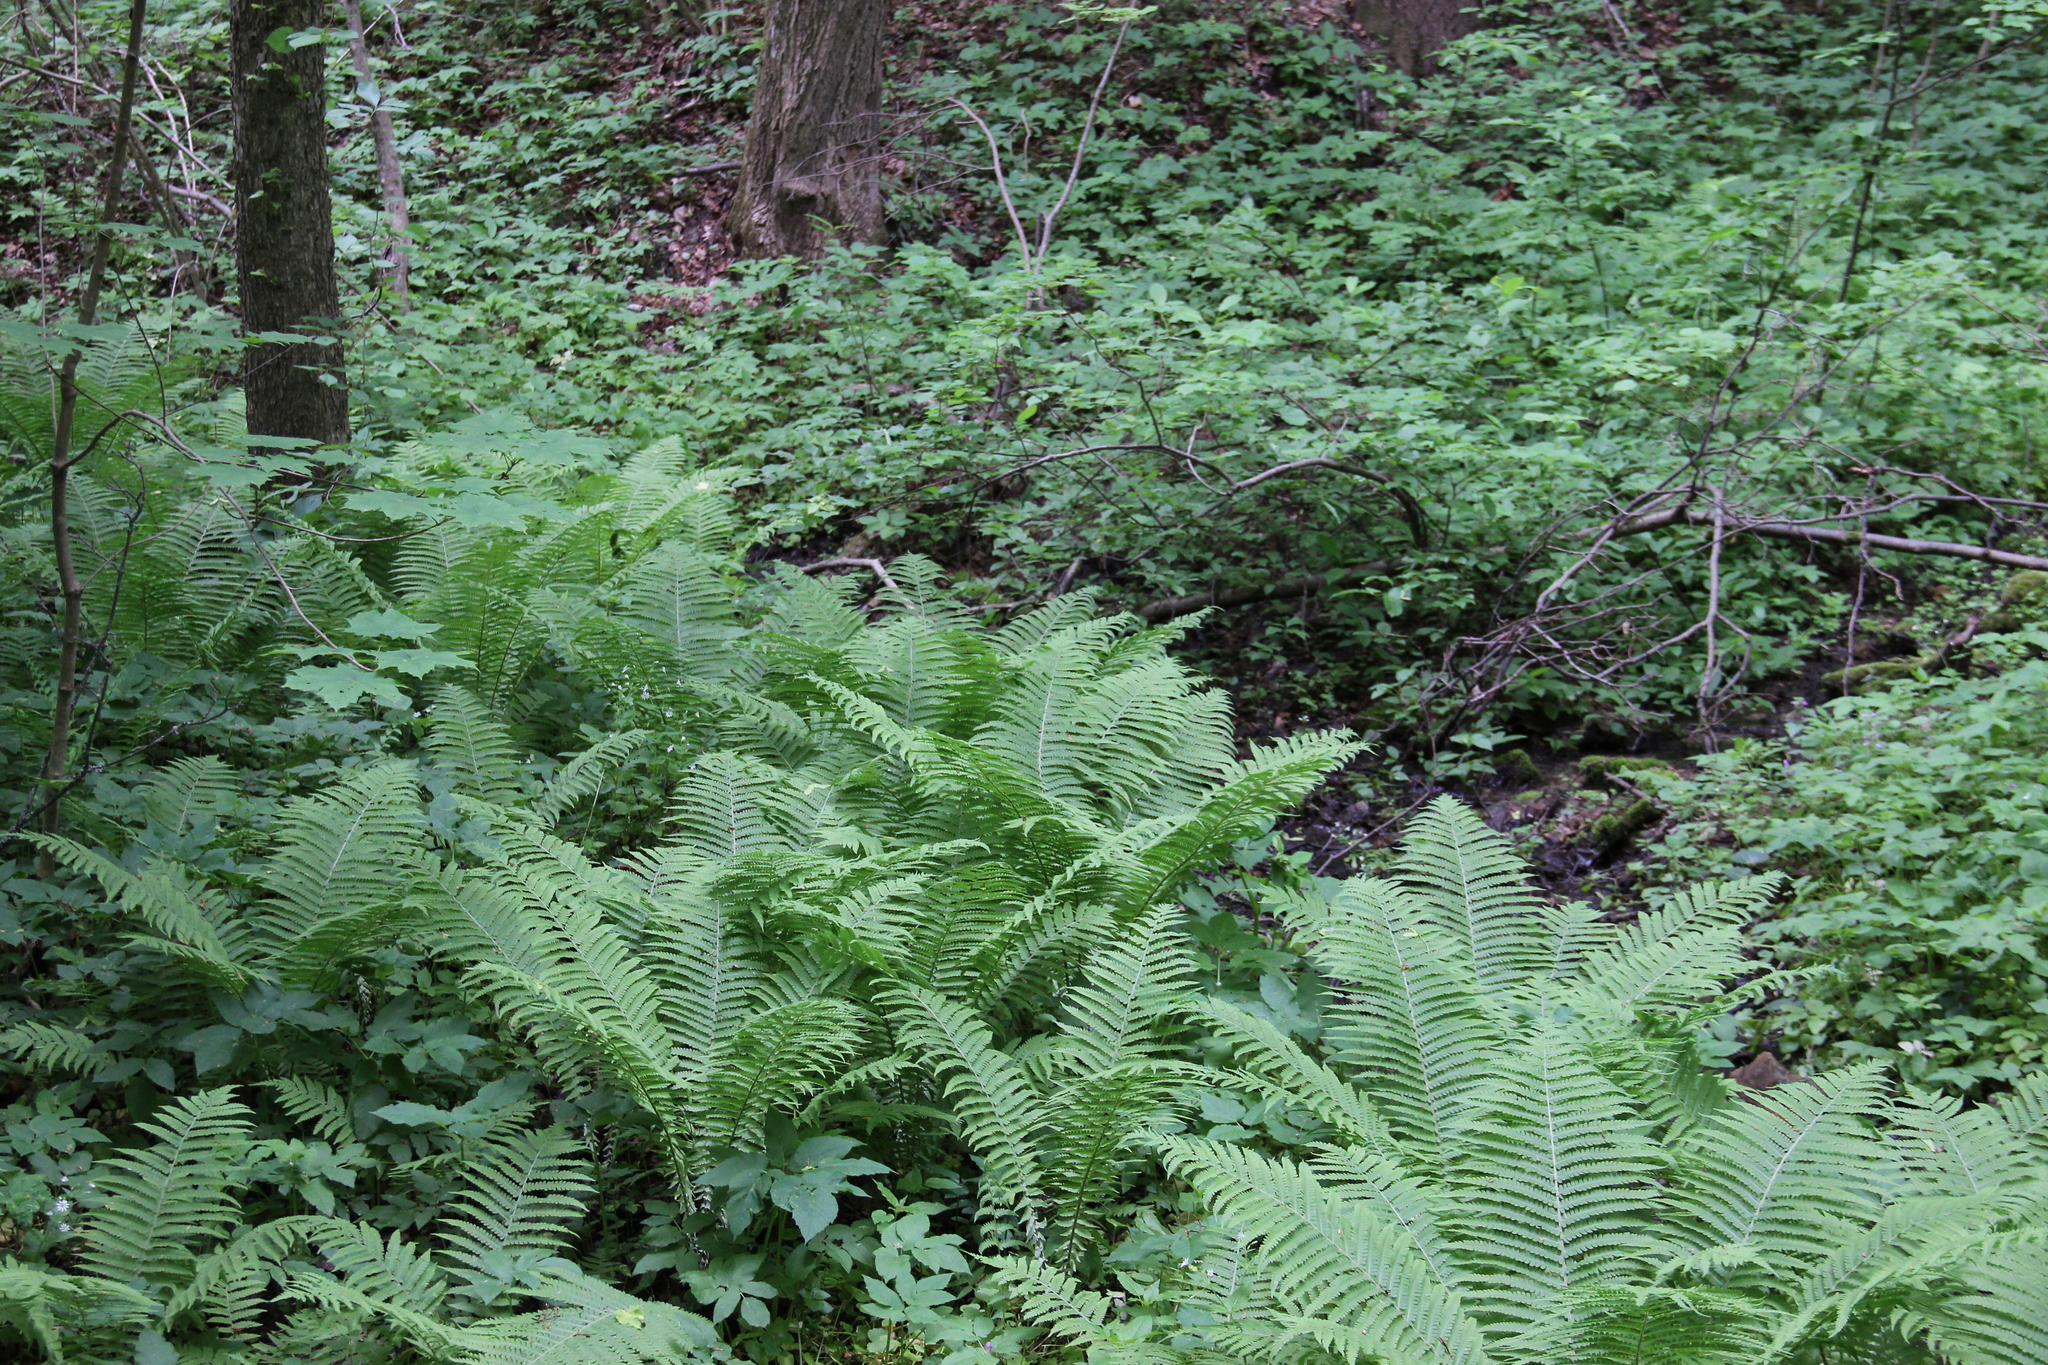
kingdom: Plantae
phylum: Tracheophyta
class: Polypodiopsida
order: Polypodiales
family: Onocleaceae
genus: Matteuccia
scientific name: Matteuccia struthiopteris
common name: Ostrich fern
